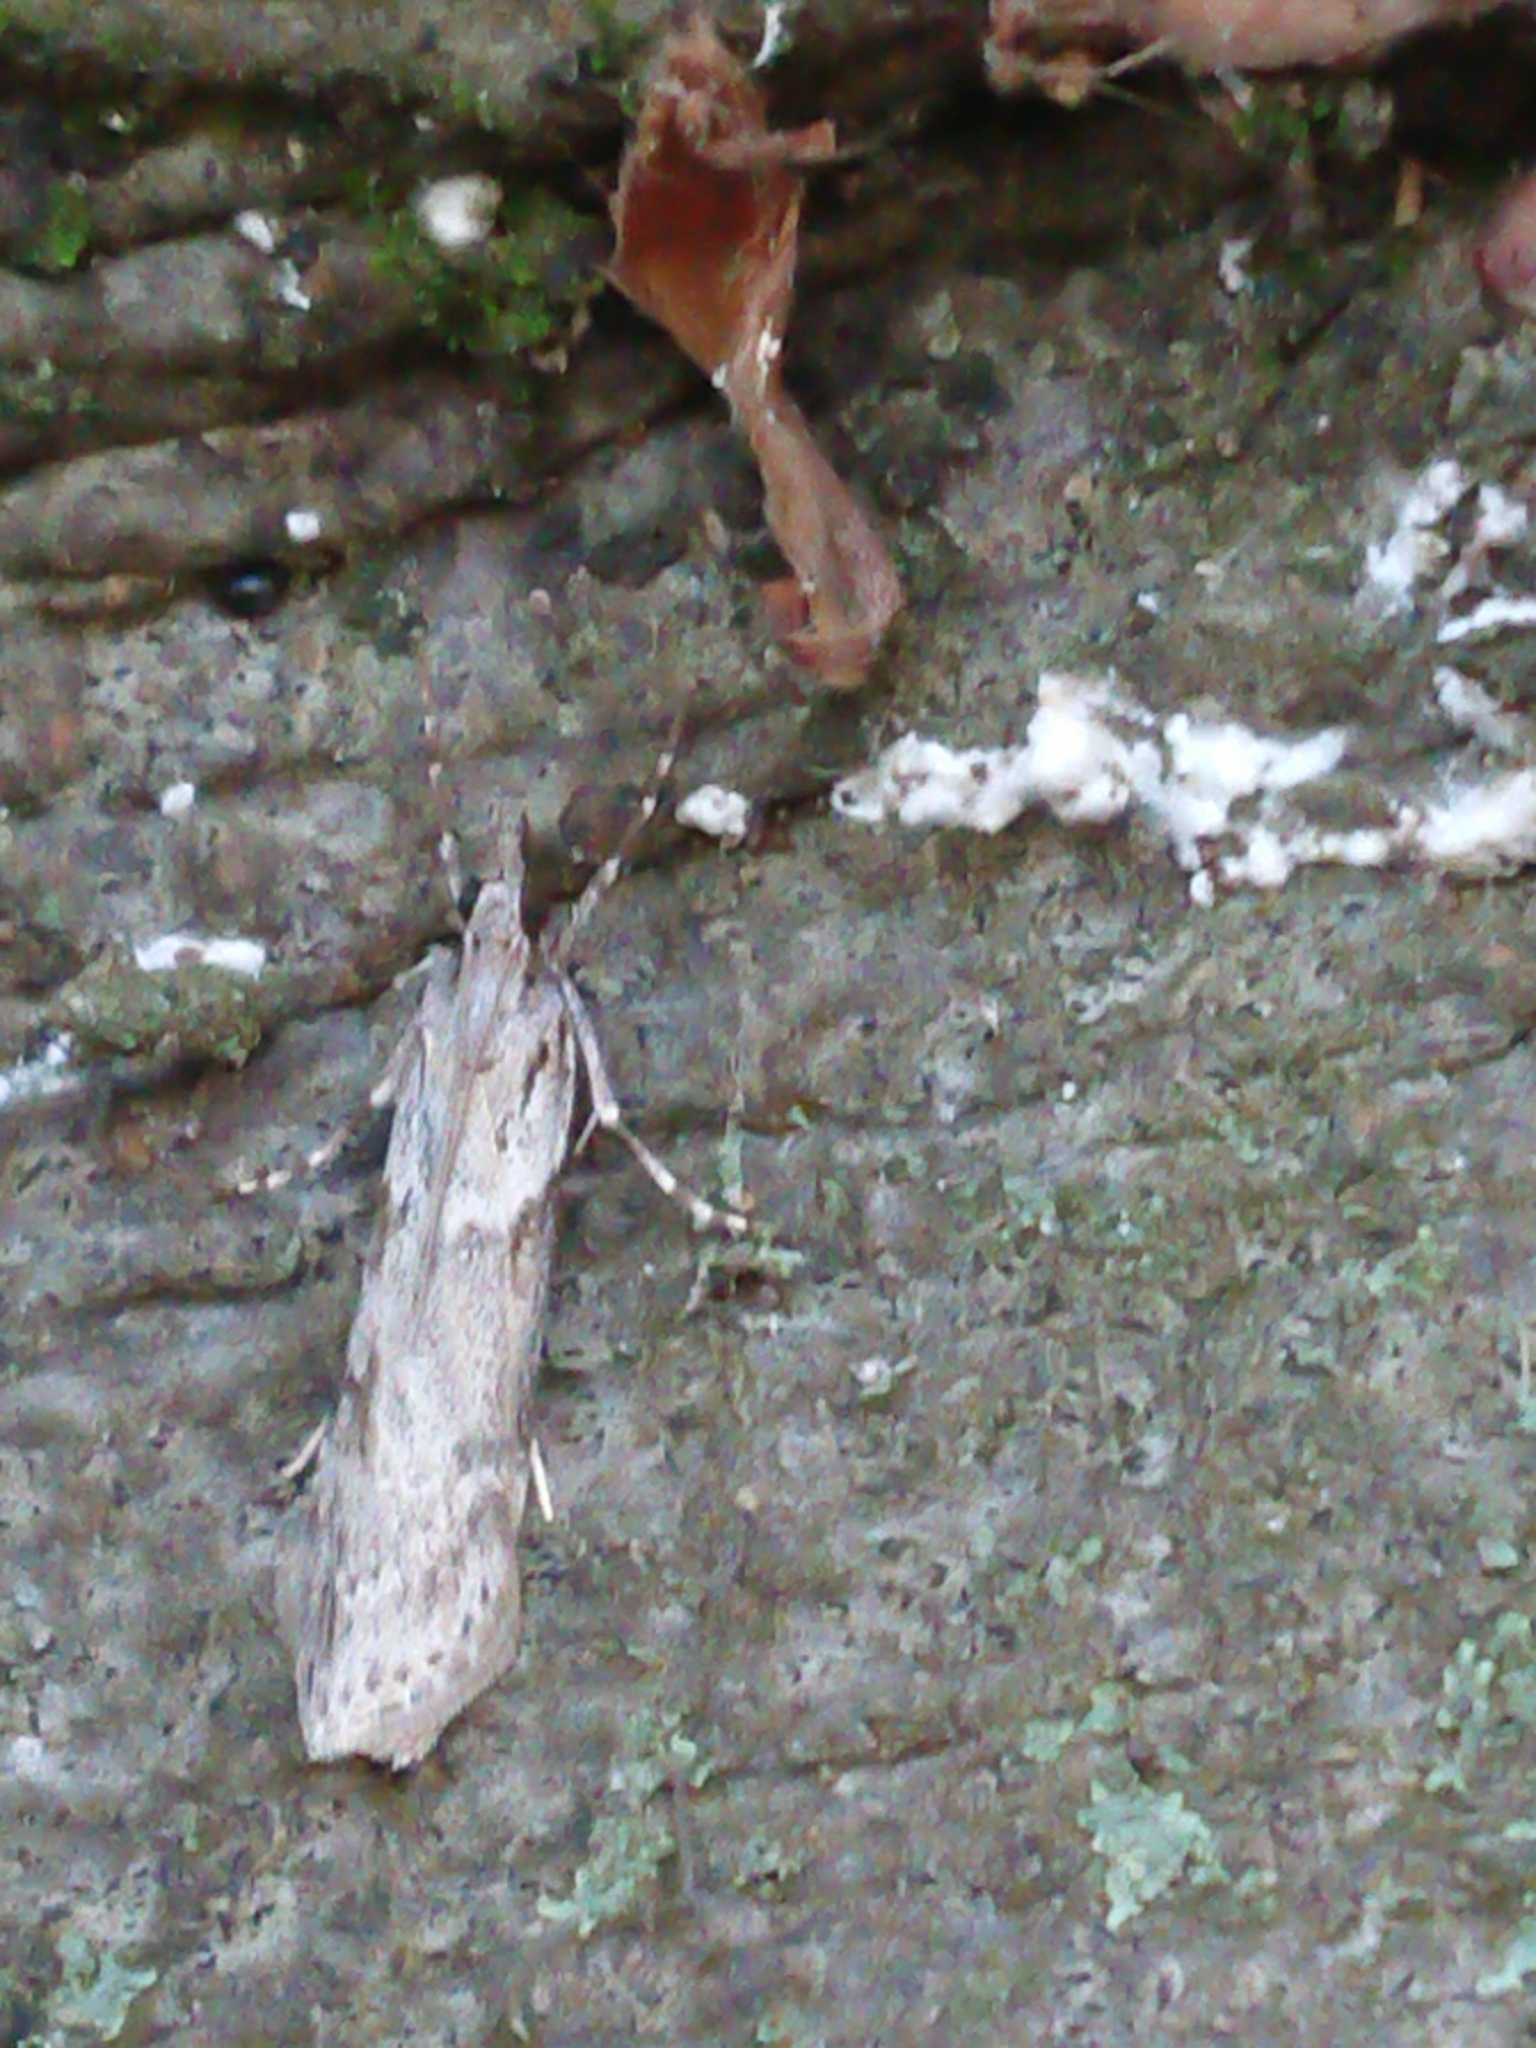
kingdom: Animalia
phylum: Arthropoda
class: Insecta
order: Lepidoptera
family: Crambidae
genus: Scoparia
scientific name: Scoparia halopis
